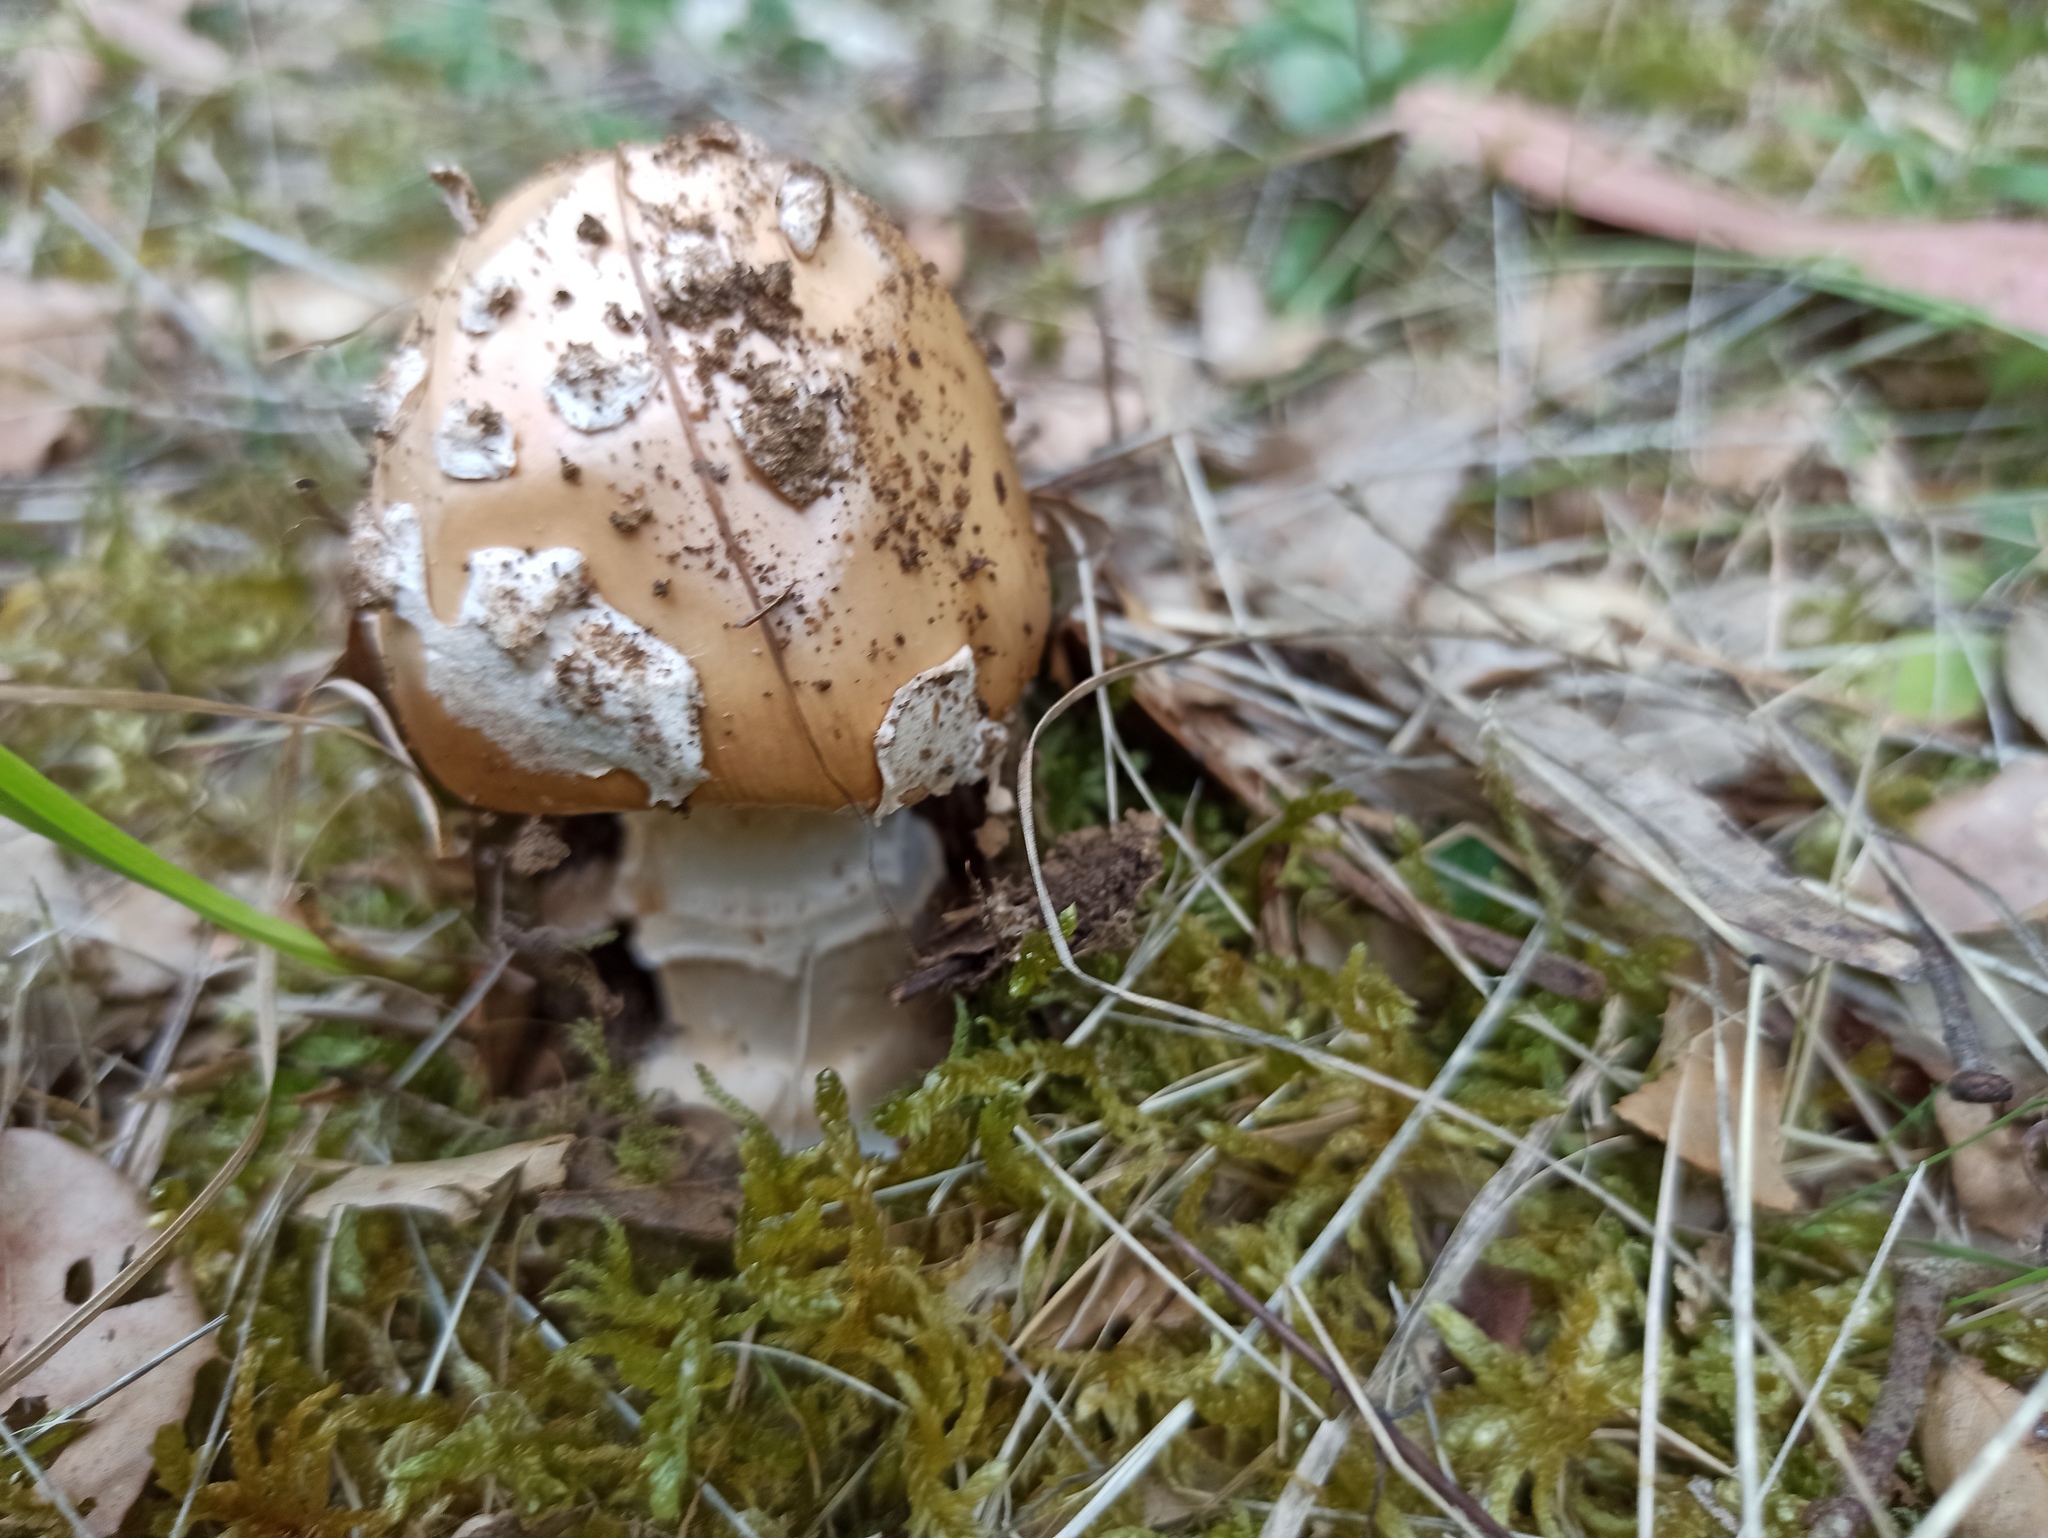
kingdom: Fungi
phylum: Basidiomycota
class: Agaricomycetes
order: Agaricales
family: Amanitaceae
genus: Amanita
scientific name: Amanita gemmata
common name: Jewelled amanita
